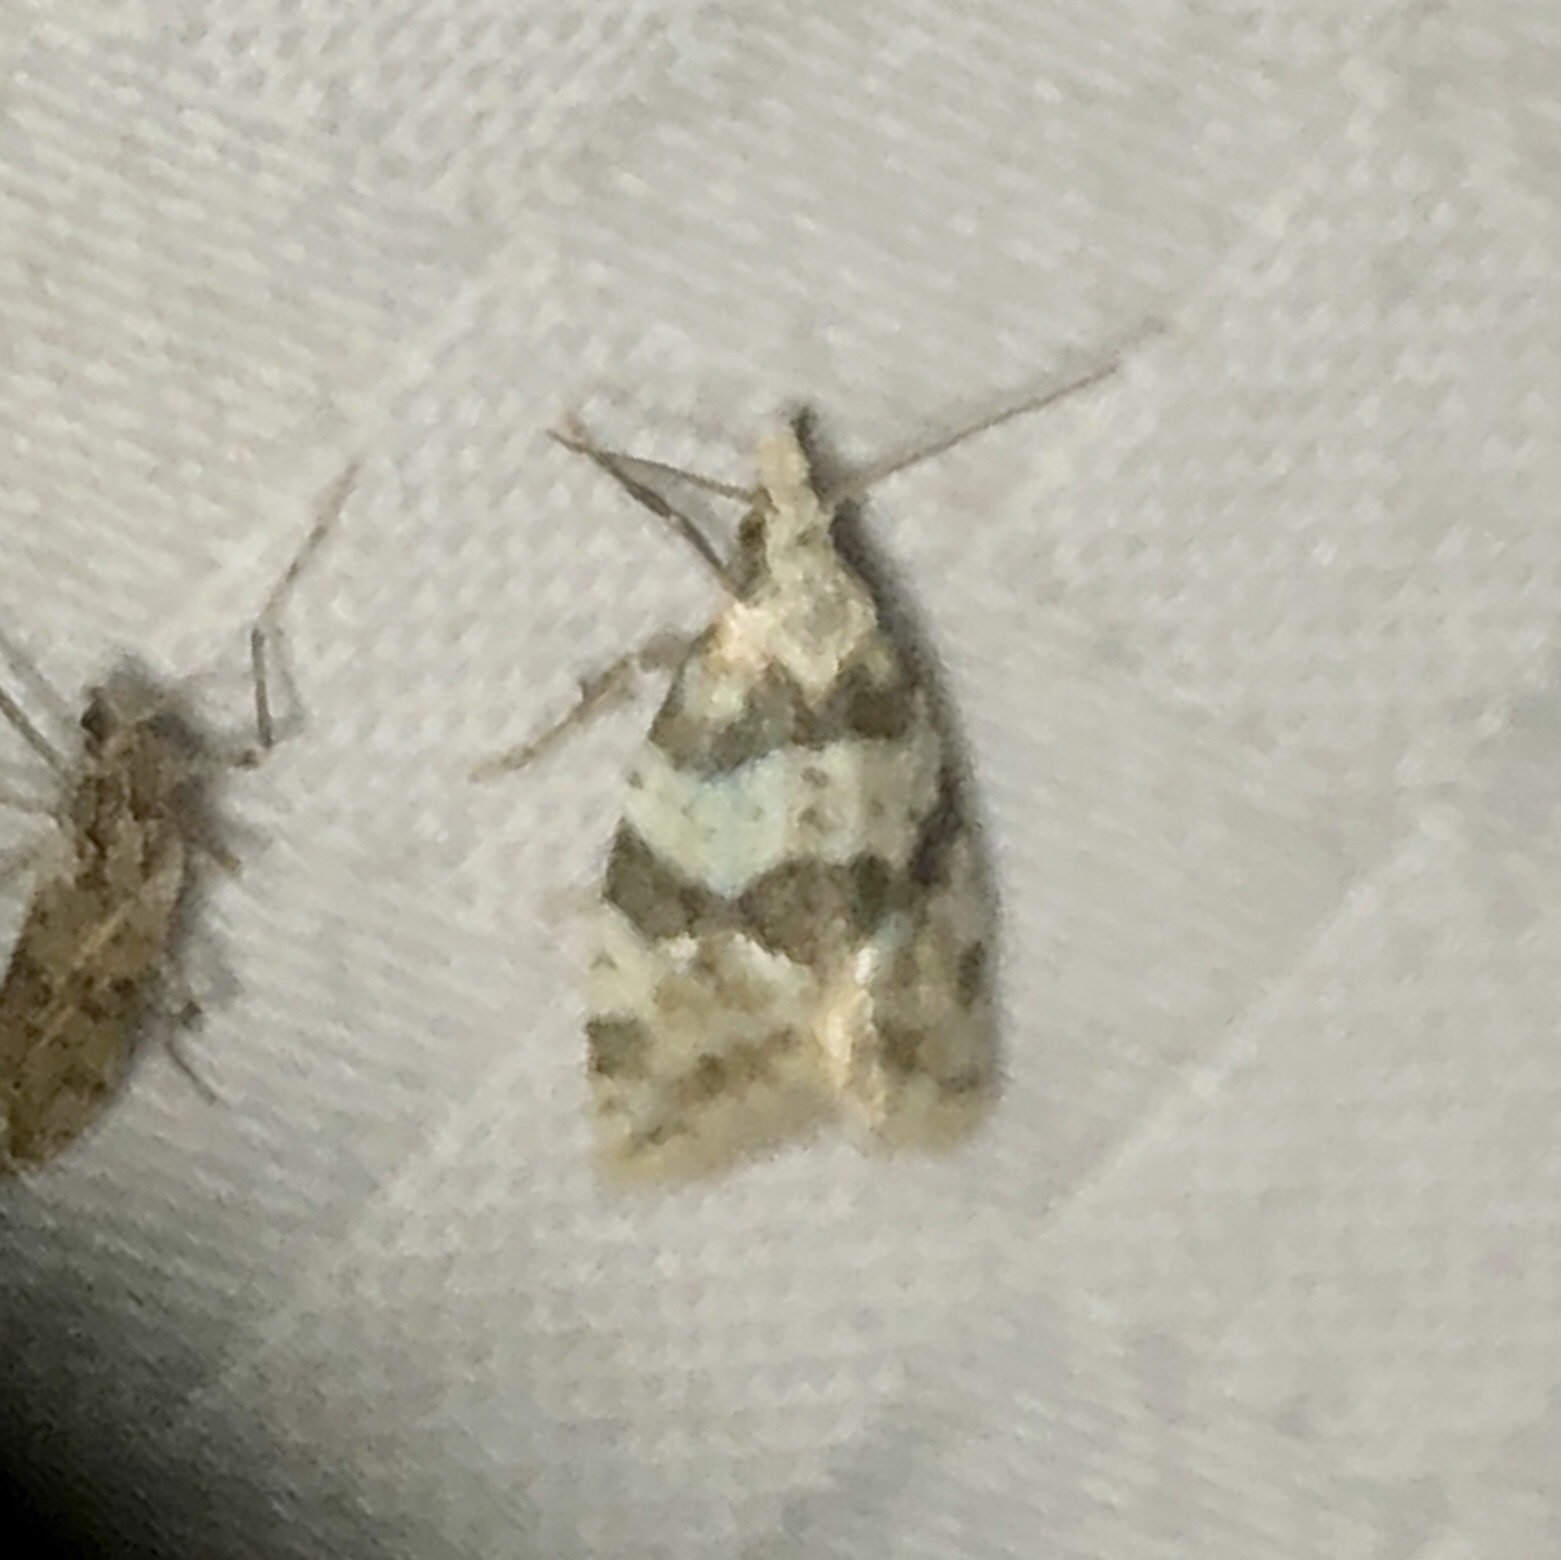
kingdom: Animalia
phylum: Arthropoda
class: Insecta
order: Lepidoptera
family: Tortricidae
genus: Aethes
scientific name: Aethes argentilimitana
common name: Silver-bordered aethes
